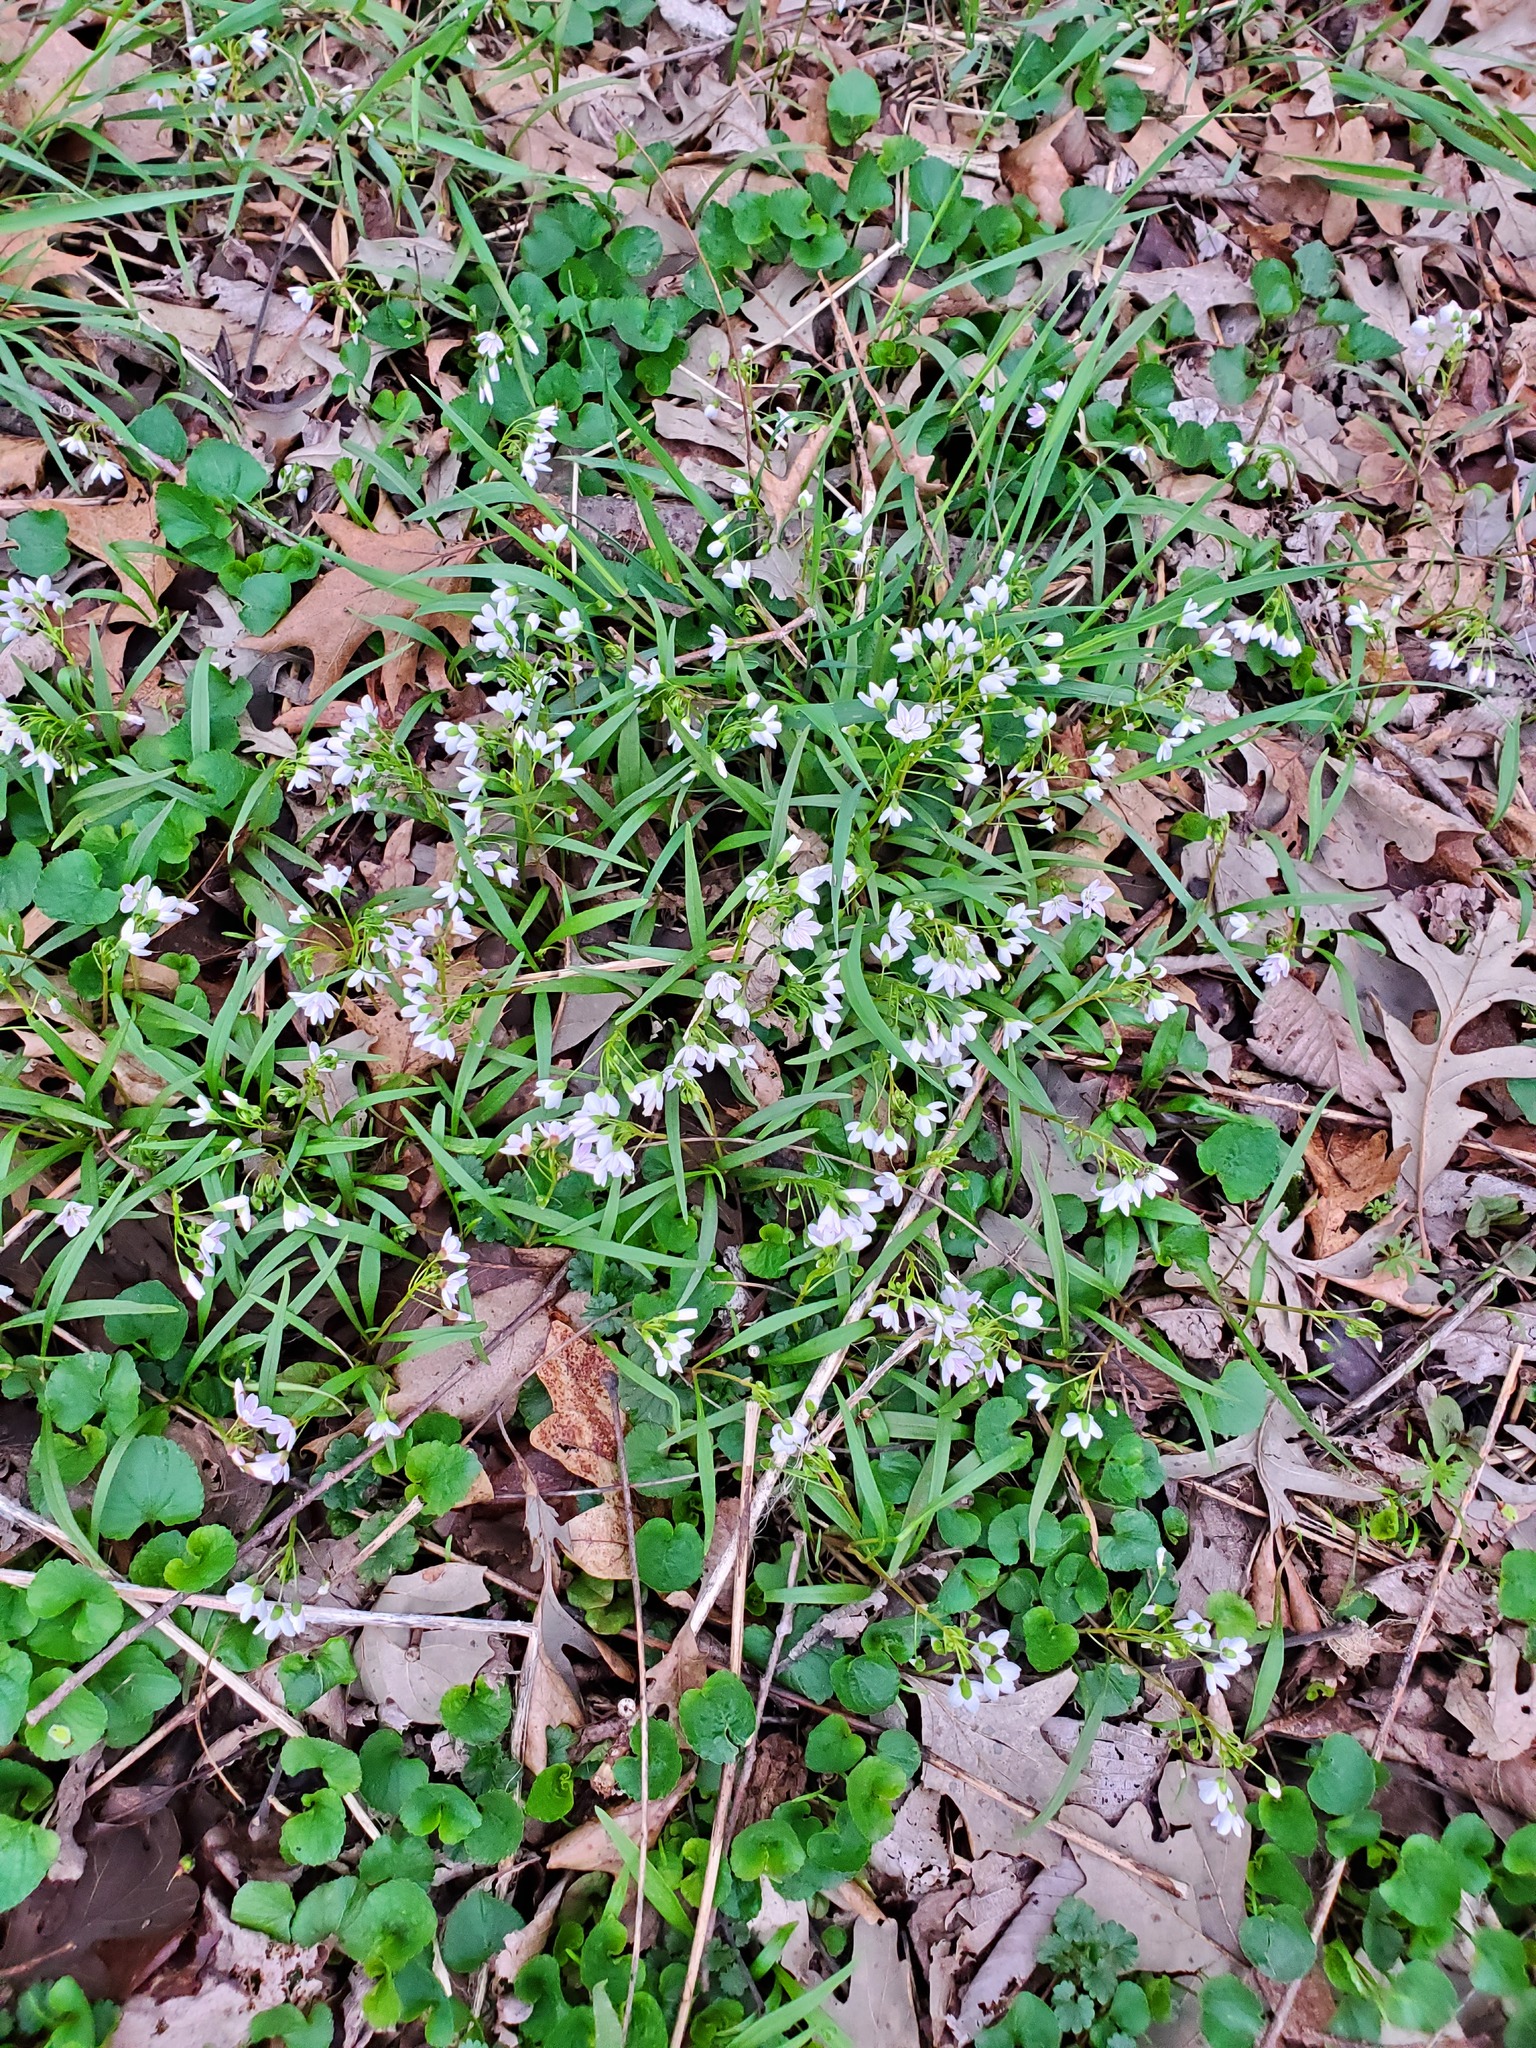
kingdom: Plantae
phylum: Tracheophyta
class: Magnoliopsida
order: Caryophyllales
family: Montiaceae
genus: Claytonia
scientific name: Claytonia virginica
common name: Virginia springbeauty
